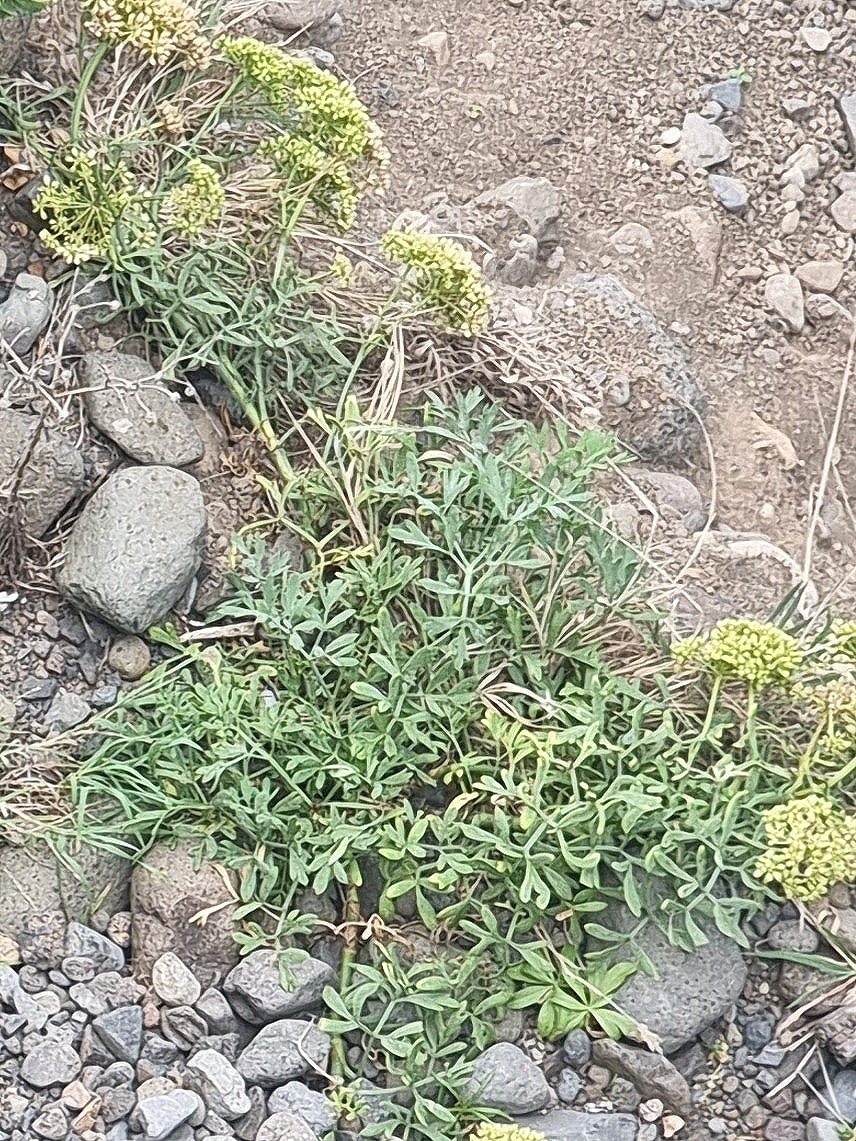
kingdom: Plantae
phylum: Tracheophyta
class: Magnoliopsida
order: Apiales
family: Apiaceae
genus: Crithmum
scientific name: Crithmum maritimum
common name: Rock samphire
